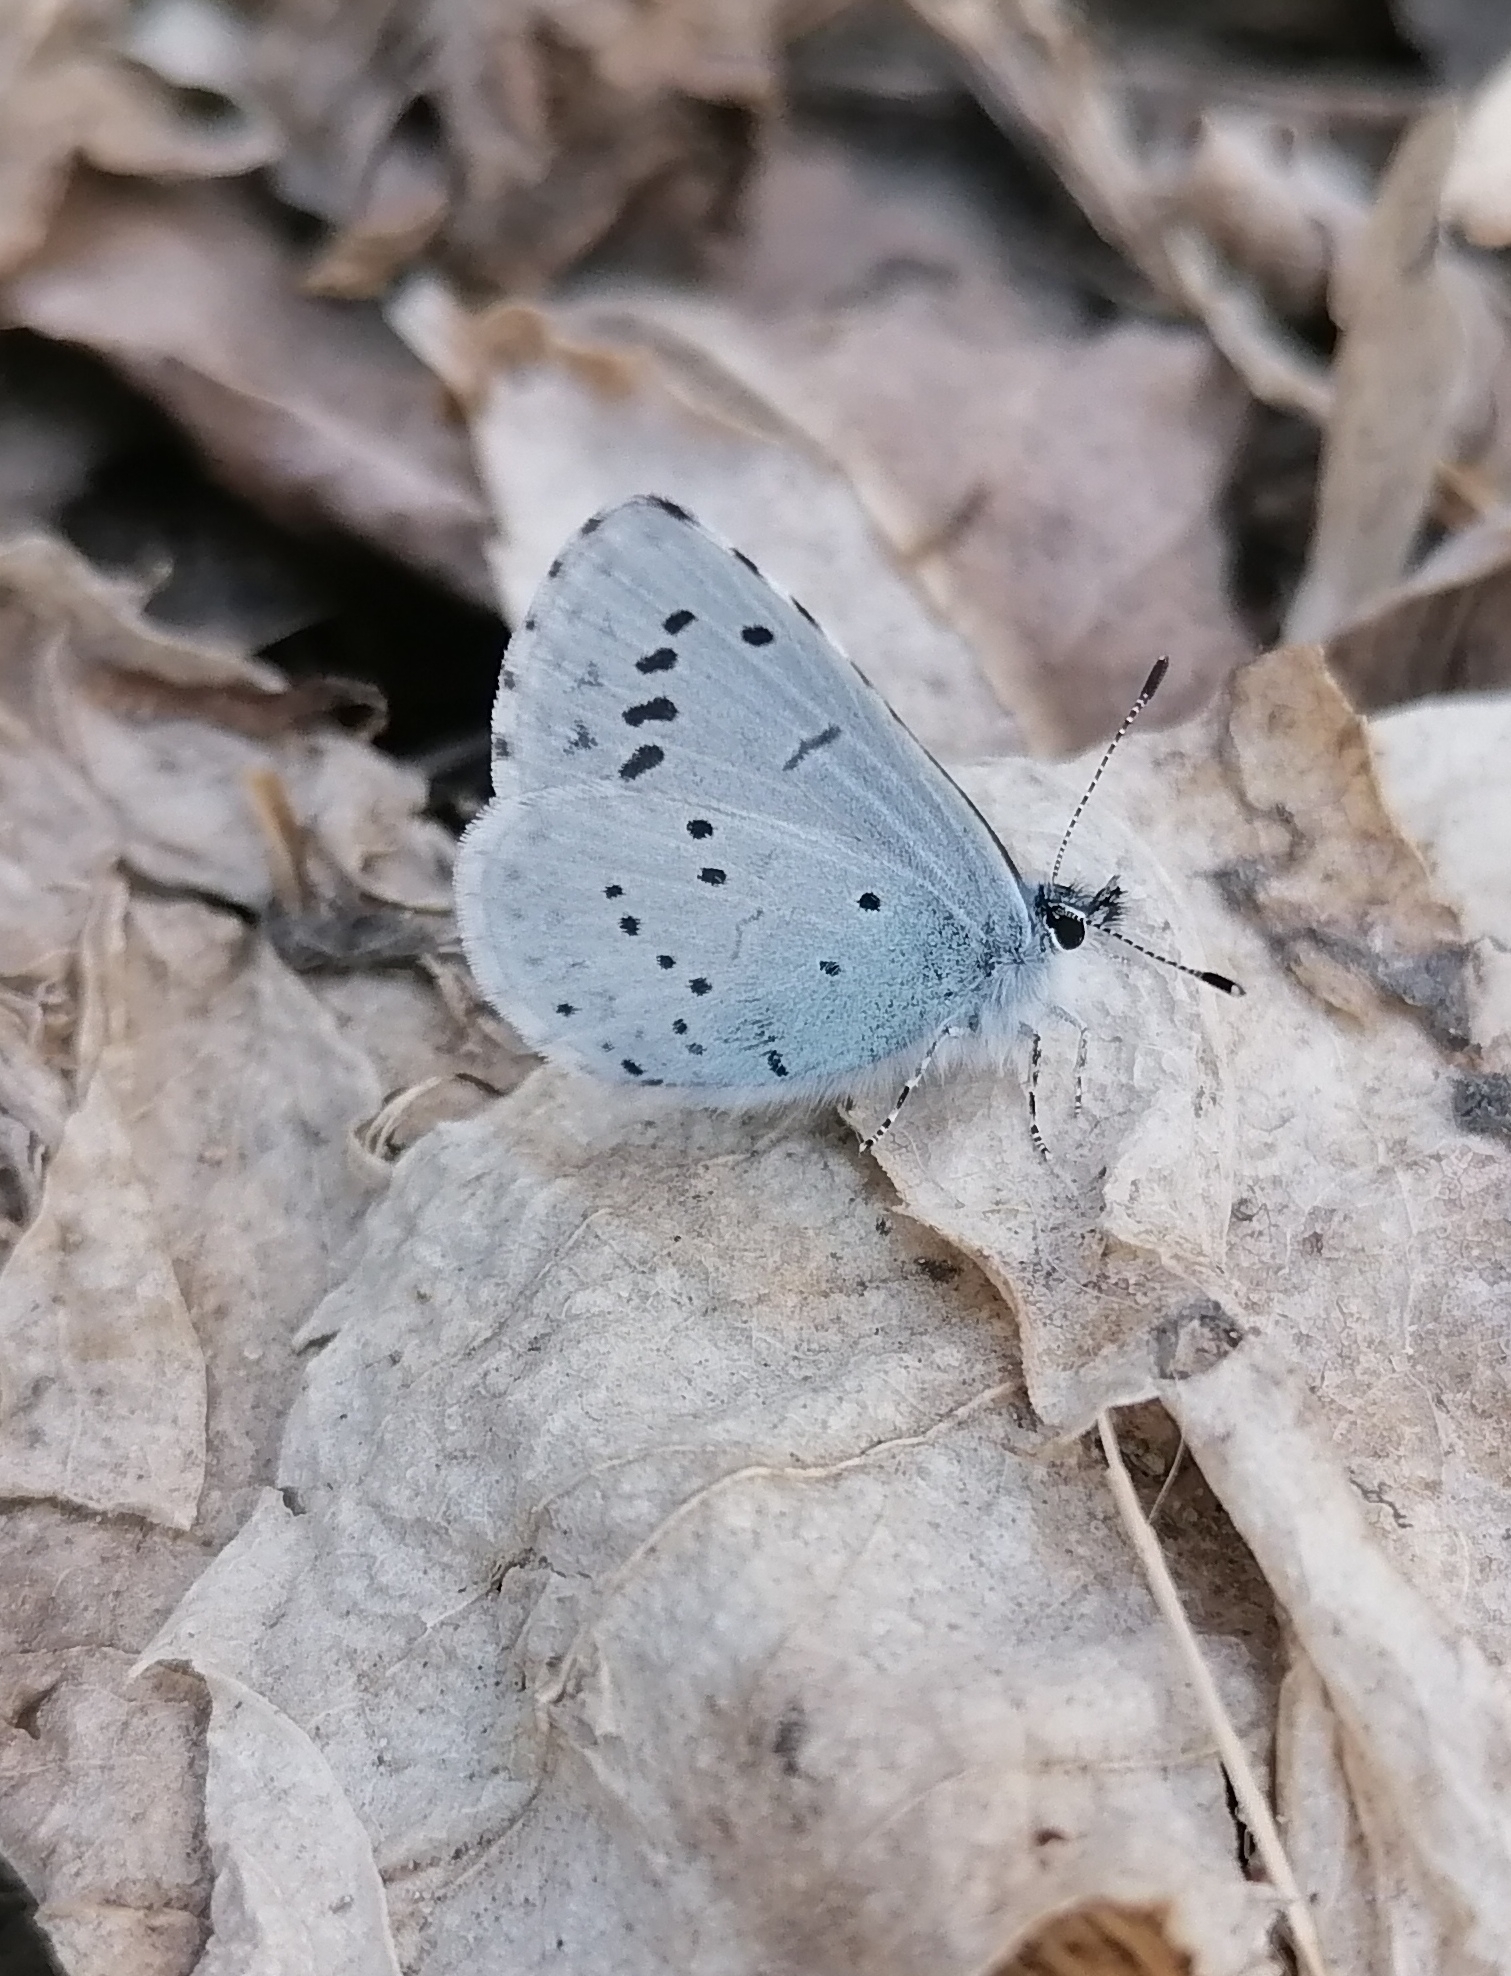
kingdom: Animalia
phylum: Arthropoda
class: Insecta
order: Lepidoptera
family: Lycaenidae
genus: Celastrina
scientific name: Celastrina argiolus
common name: Holly blue
